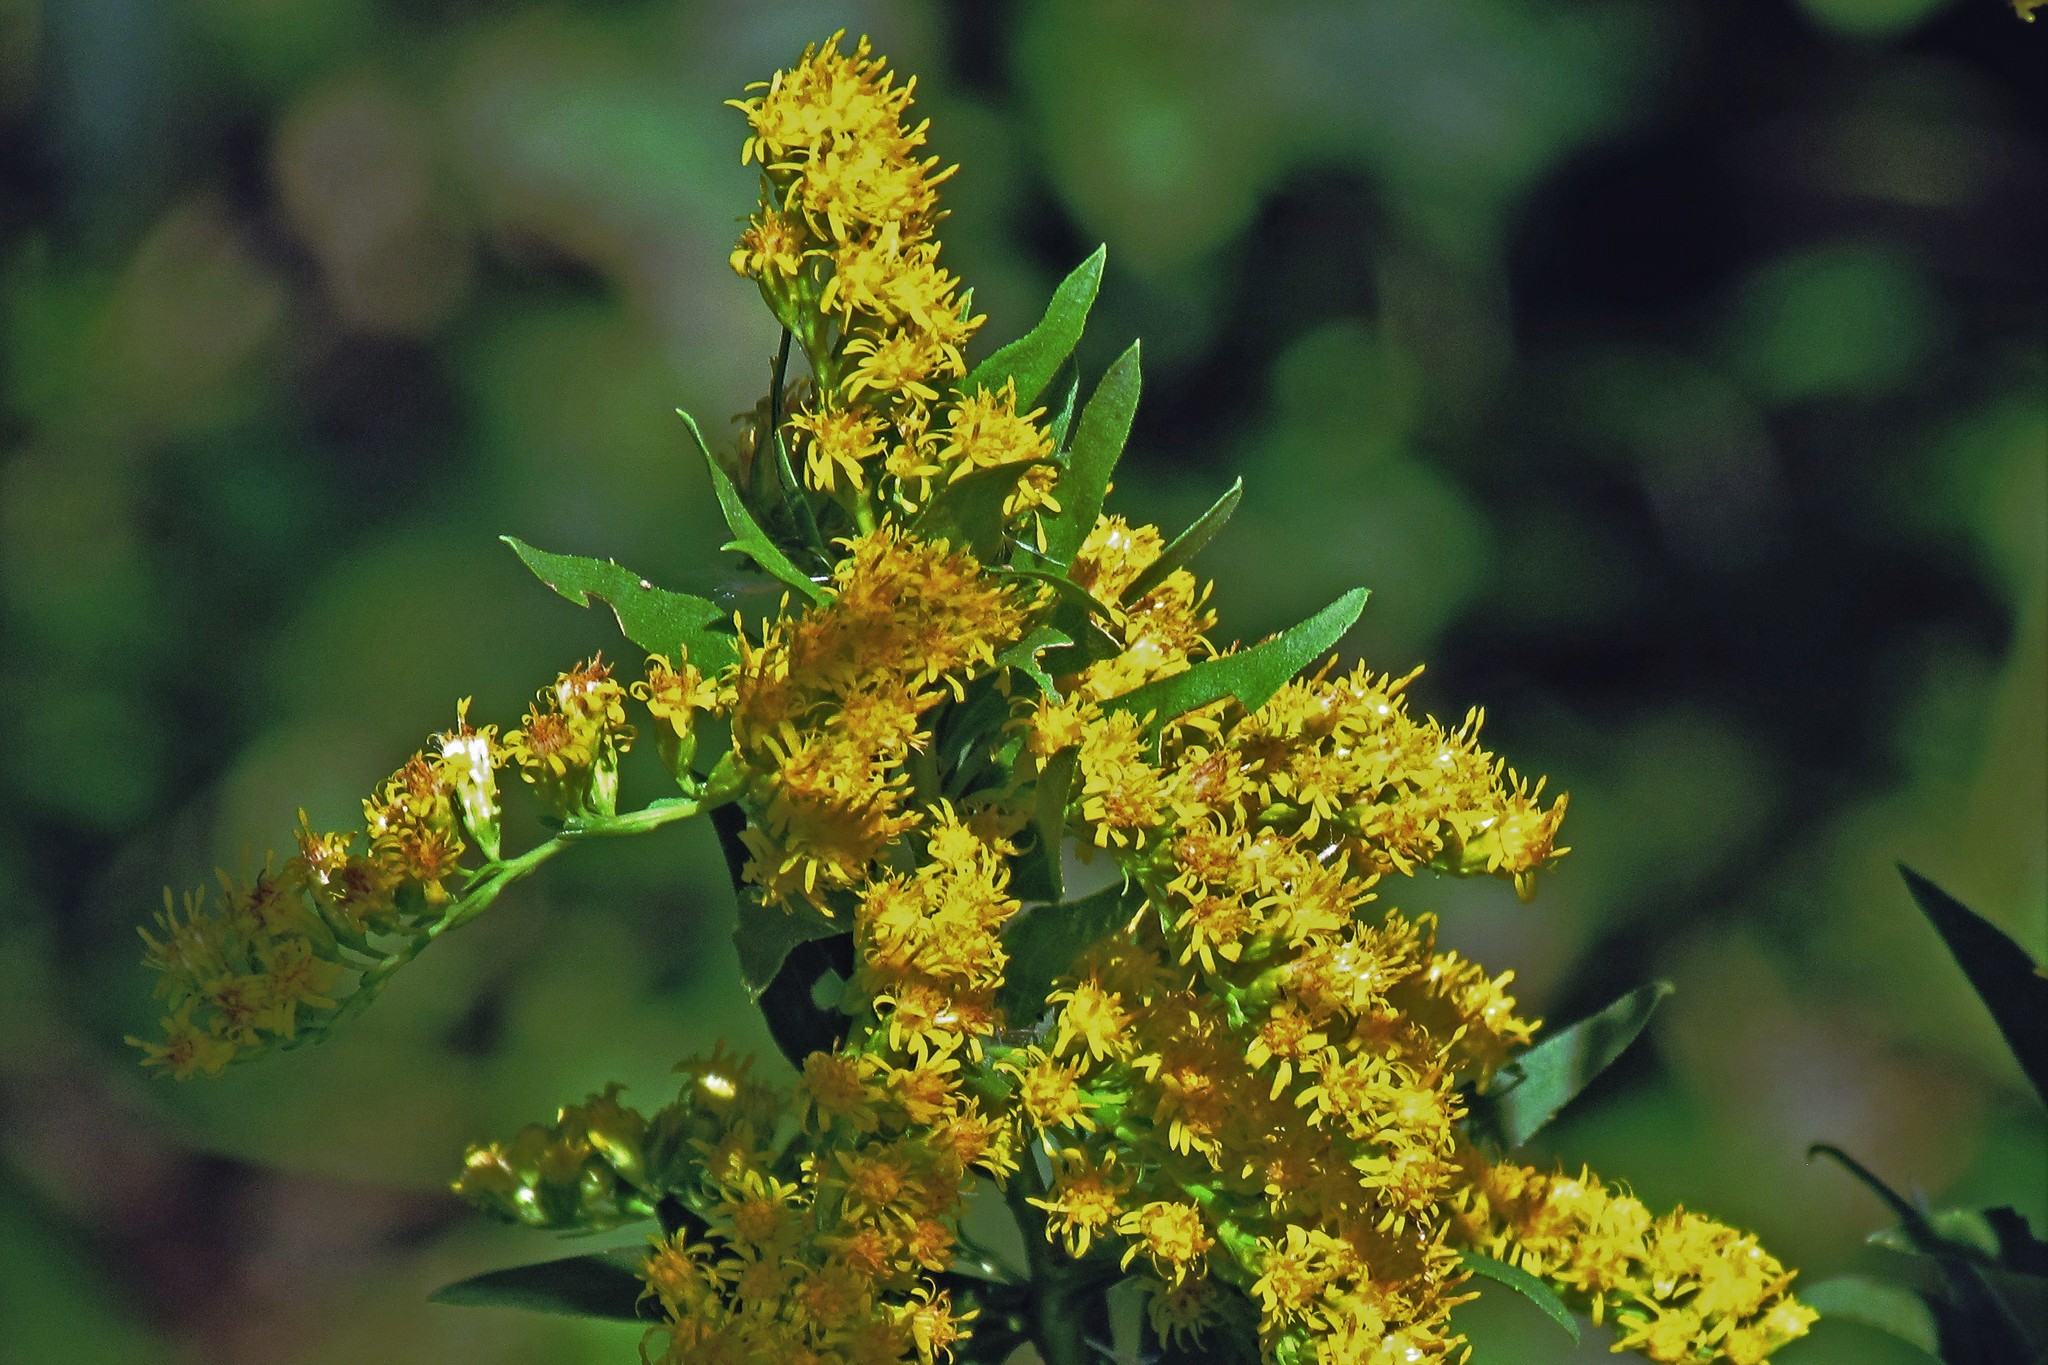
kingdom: Plantae
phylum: Tracheophyta
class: Magnoliopsida
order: Asterales
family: Asteraceae
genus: Solidago
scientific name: Solidago chilensis
